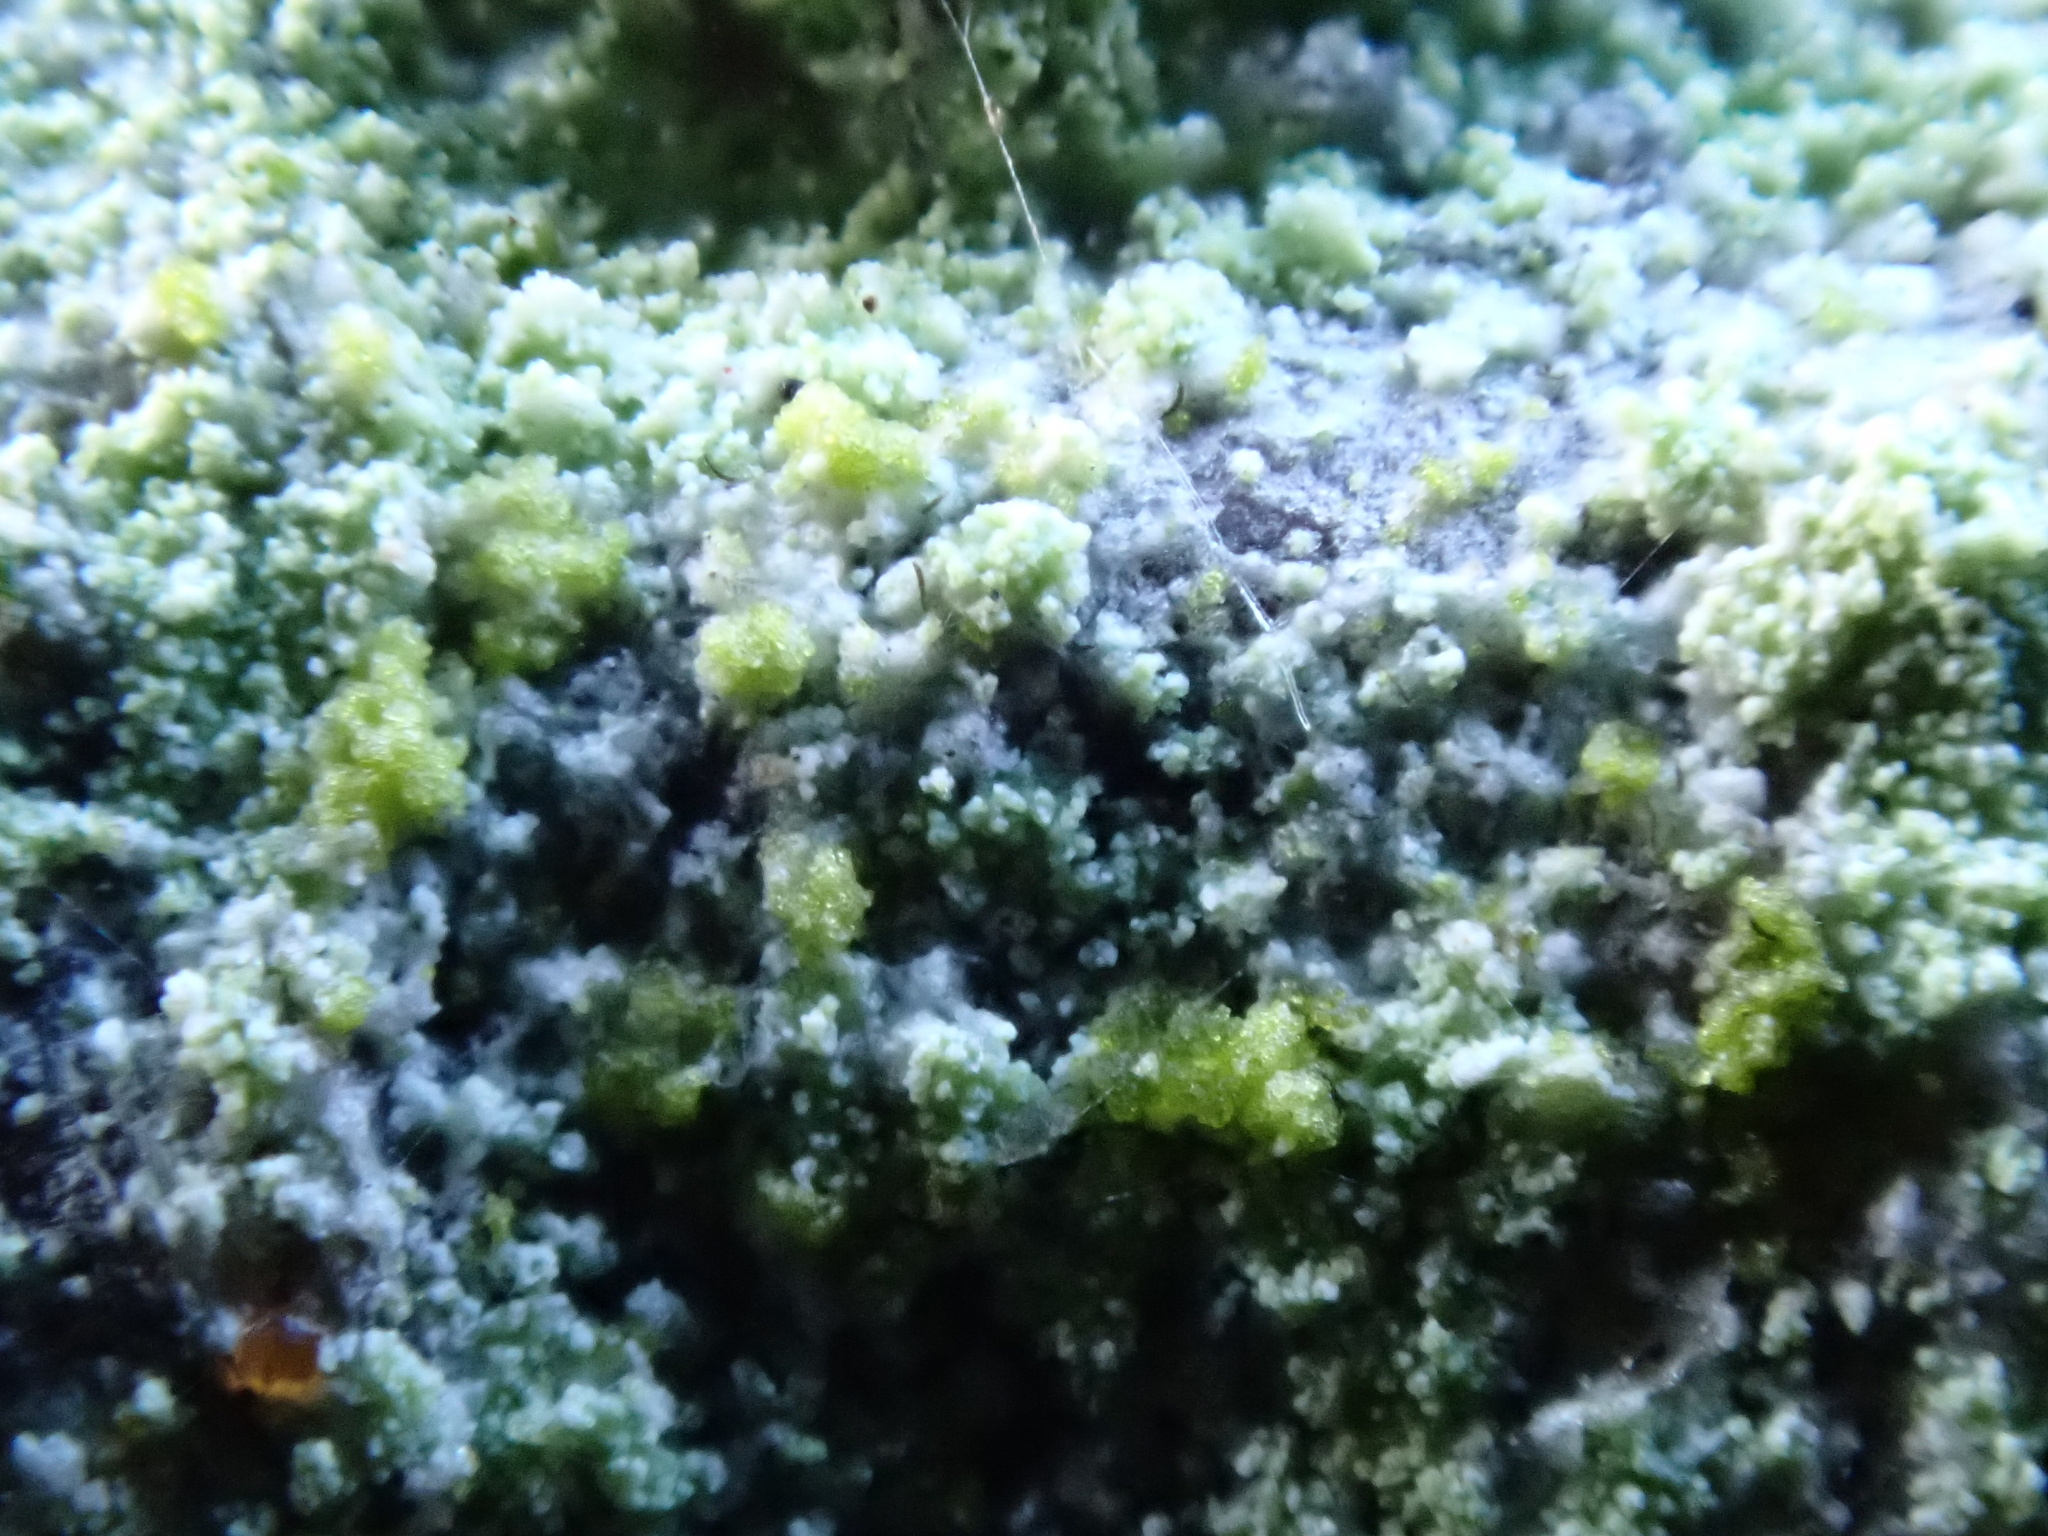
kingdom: Fungi
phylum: Ascomycota
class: Lecanoromycetes
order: Lecanorales
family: Lecanoraceae
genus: Lecanora
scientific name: Lecanora barkmaniana
